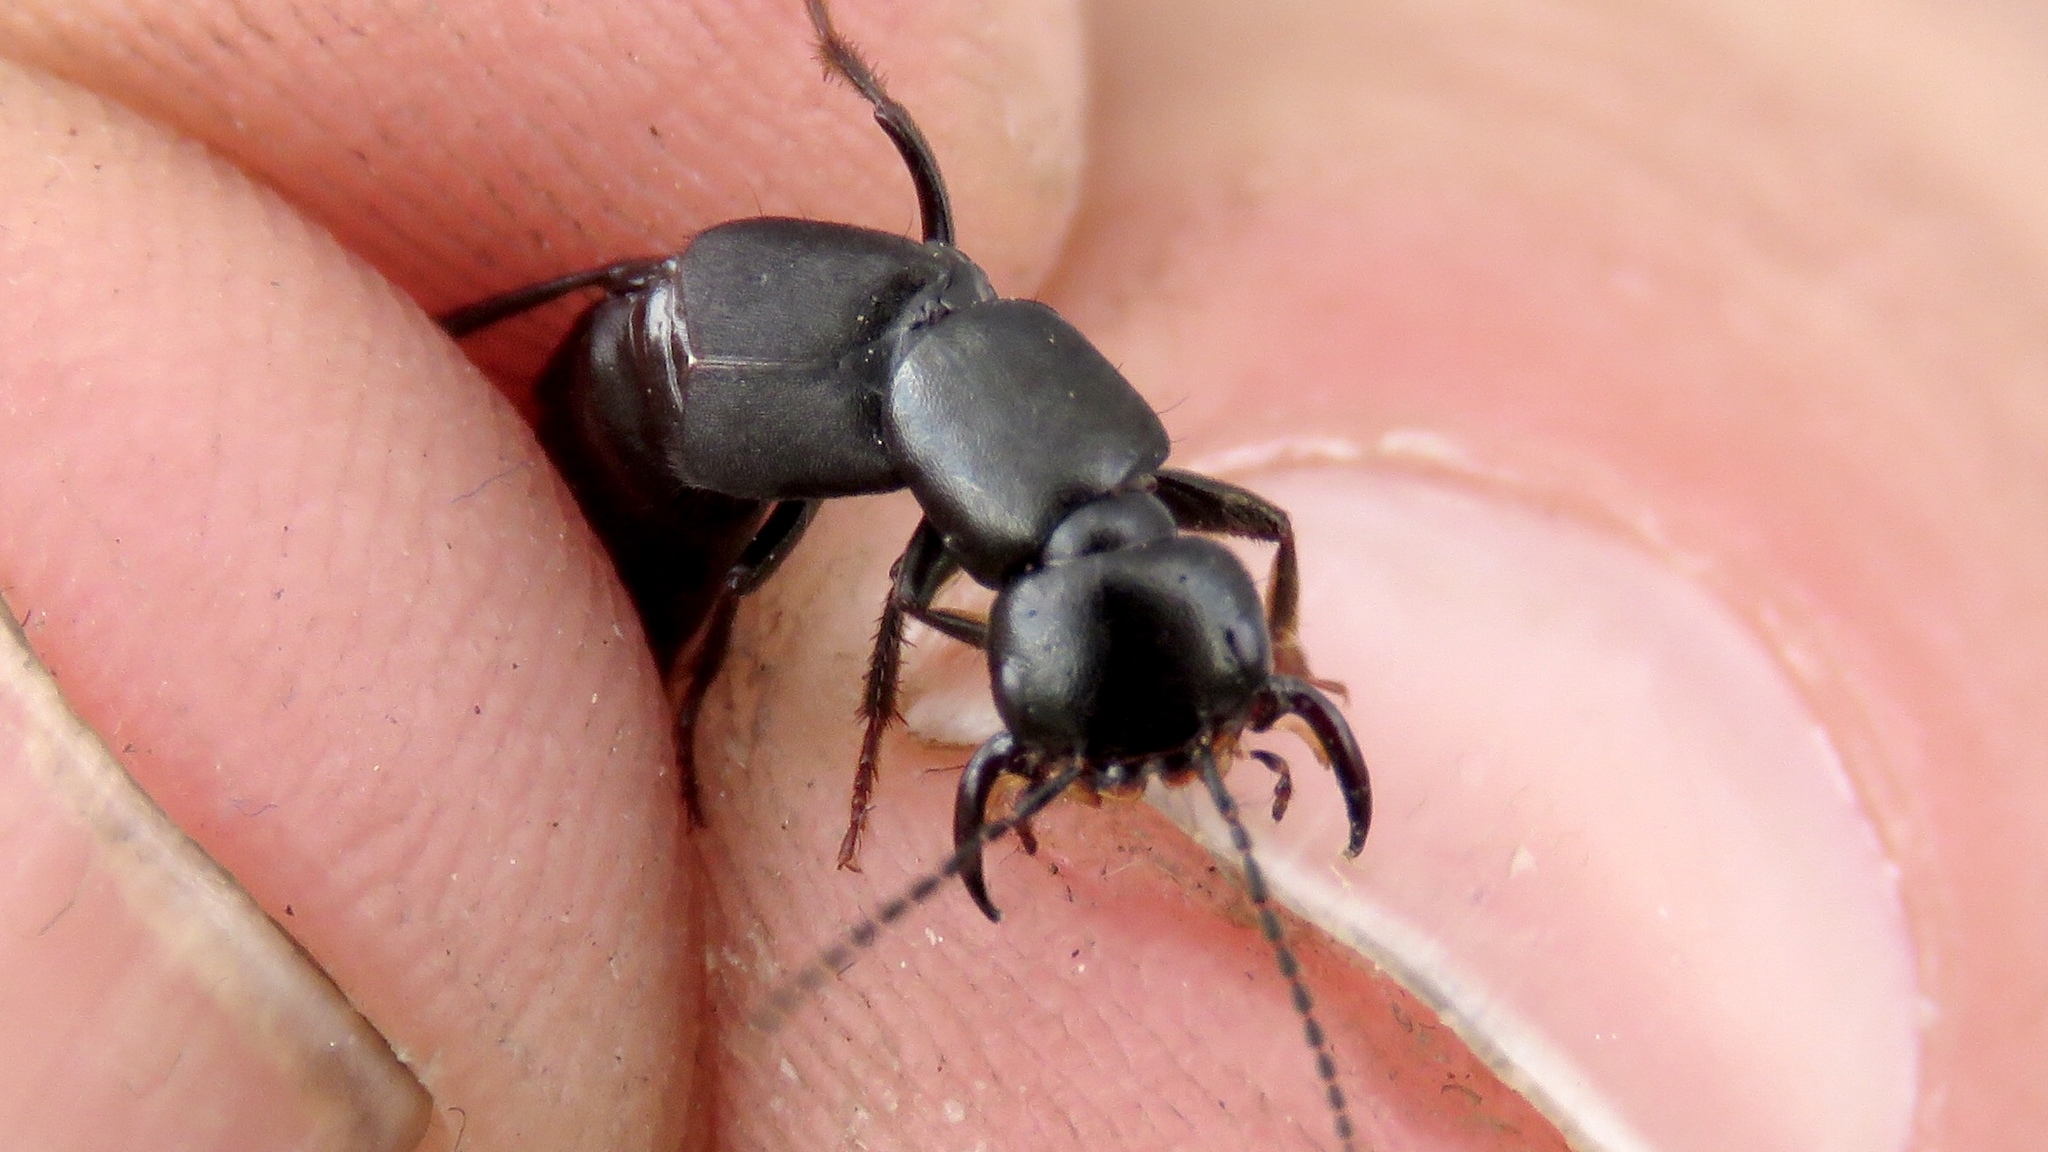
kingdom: Animalia
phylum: Arthropoda
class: Insecta
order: Coleoptera
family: Staphylinidae
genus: Tasgius
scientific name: Tasgius melanarius
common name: Rove beetle
